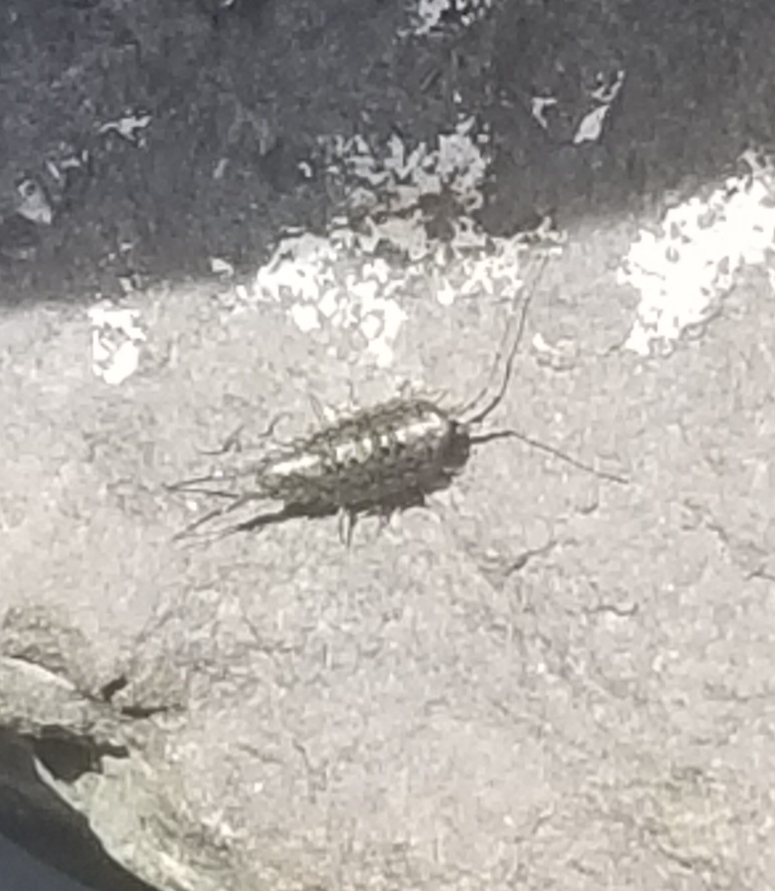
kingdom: Animalia
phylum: Arthropoda
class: Malacostraca
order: Isopoda
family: Ligiidae
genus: Ligia
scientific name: Ligia exotica
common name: Wharf roach
